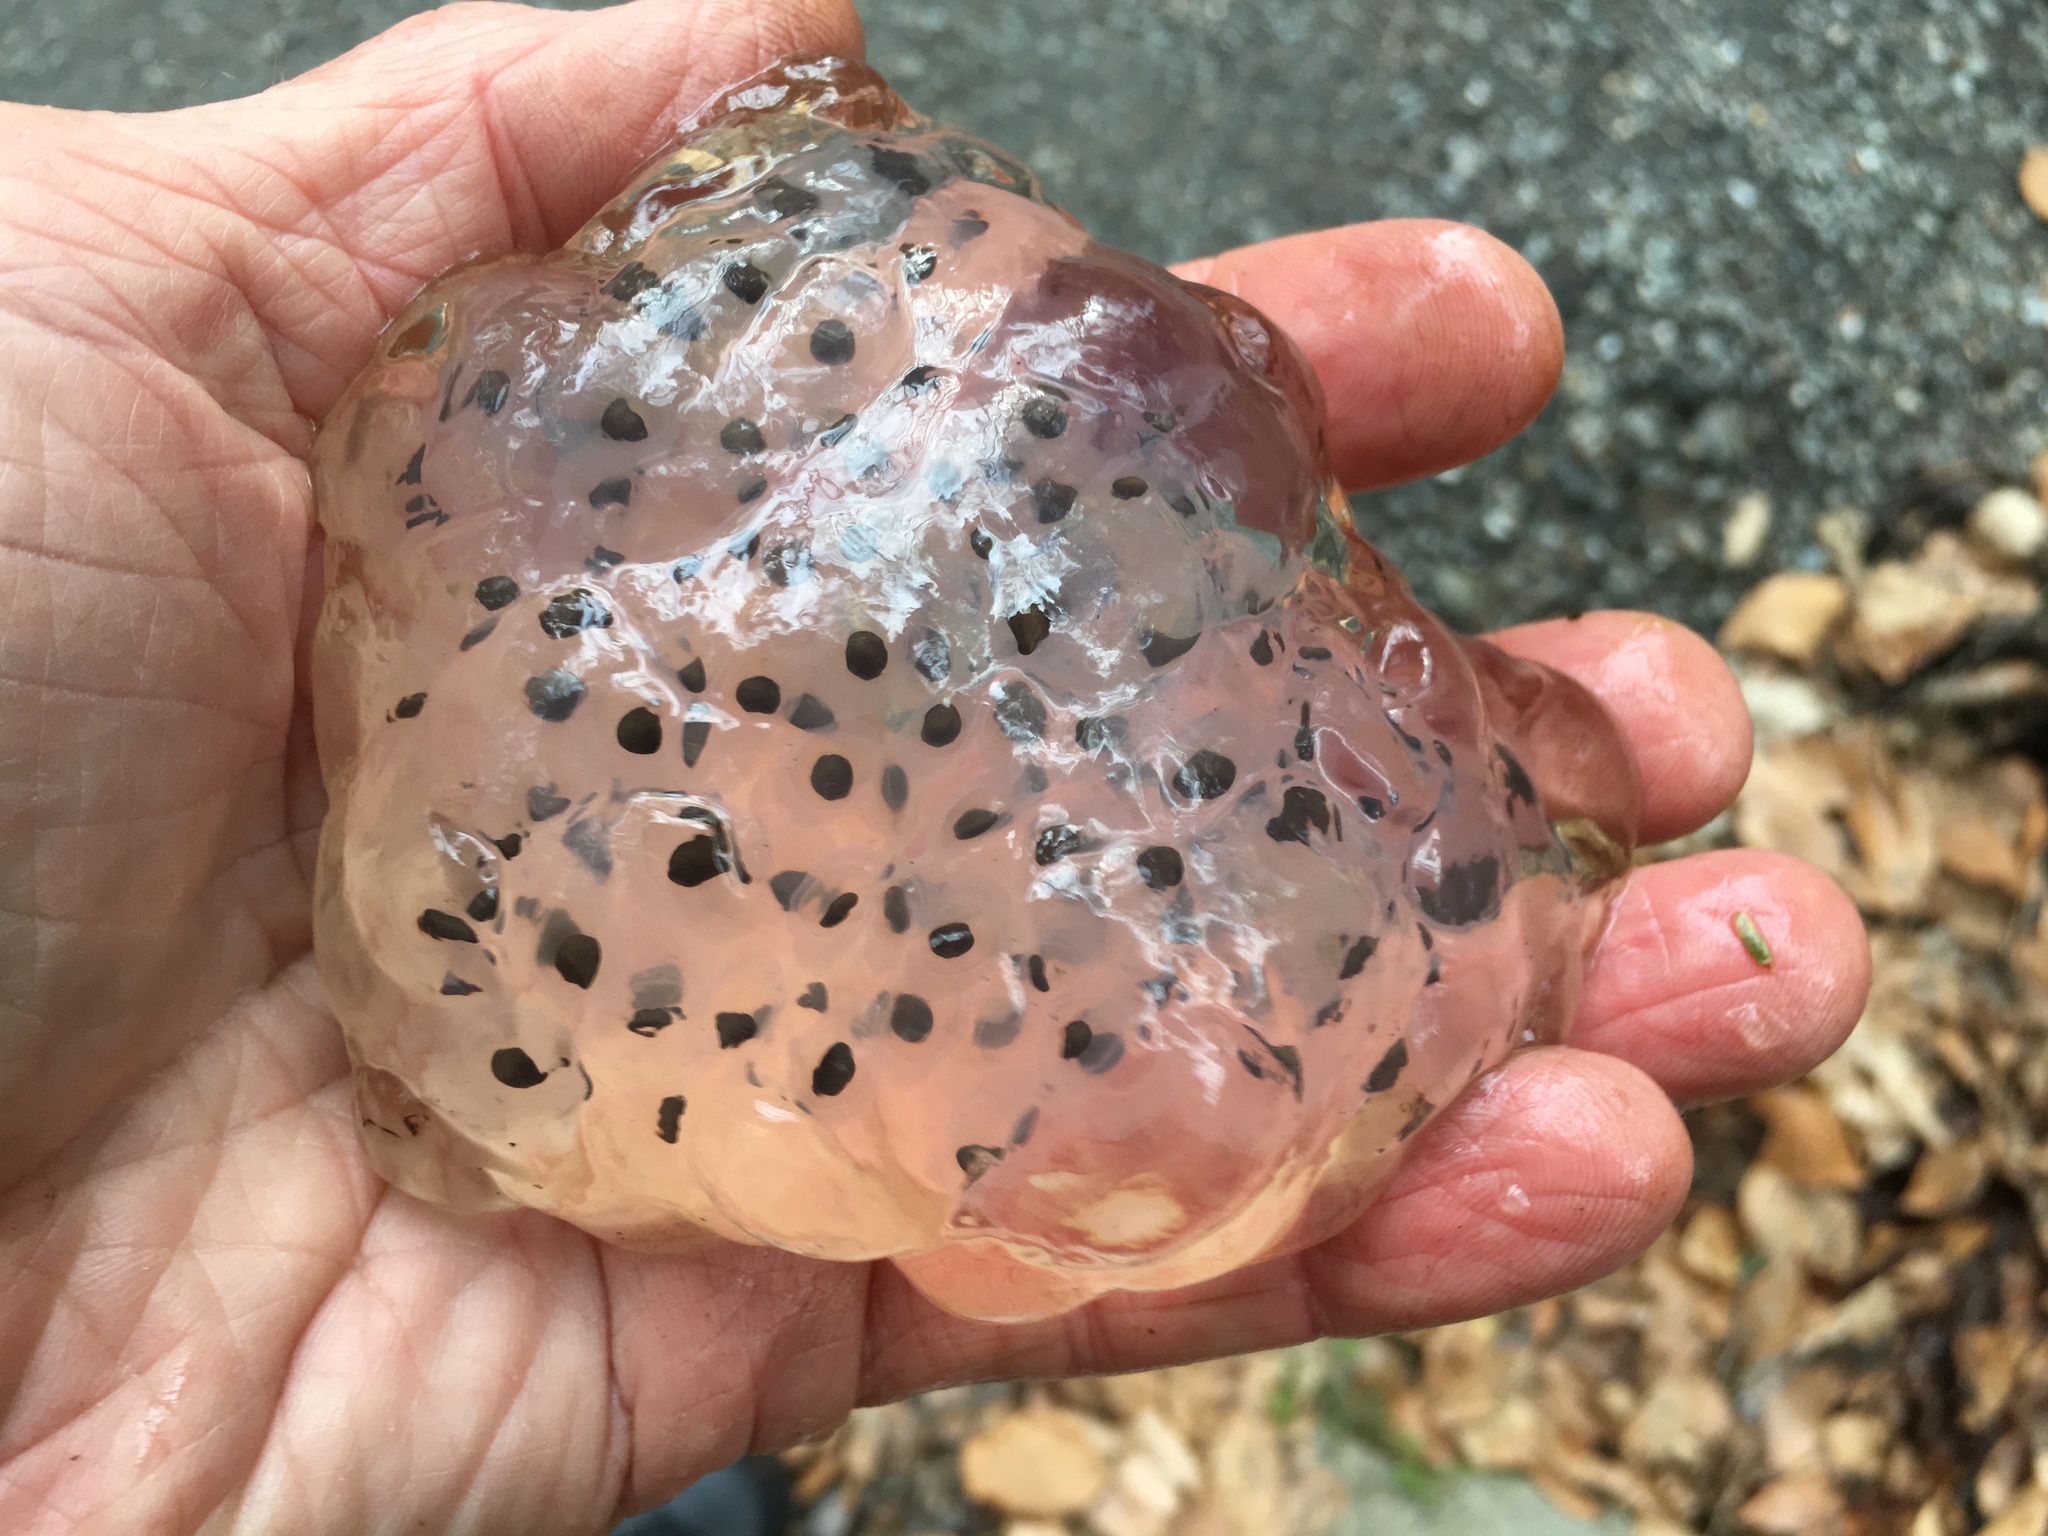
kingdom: Animalia
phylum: Chordata
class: Amphibia
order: Caudata
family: Ambystomatidae
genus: Ambystoma
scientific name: Ambystoma maculatum
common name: Spotted salamander
